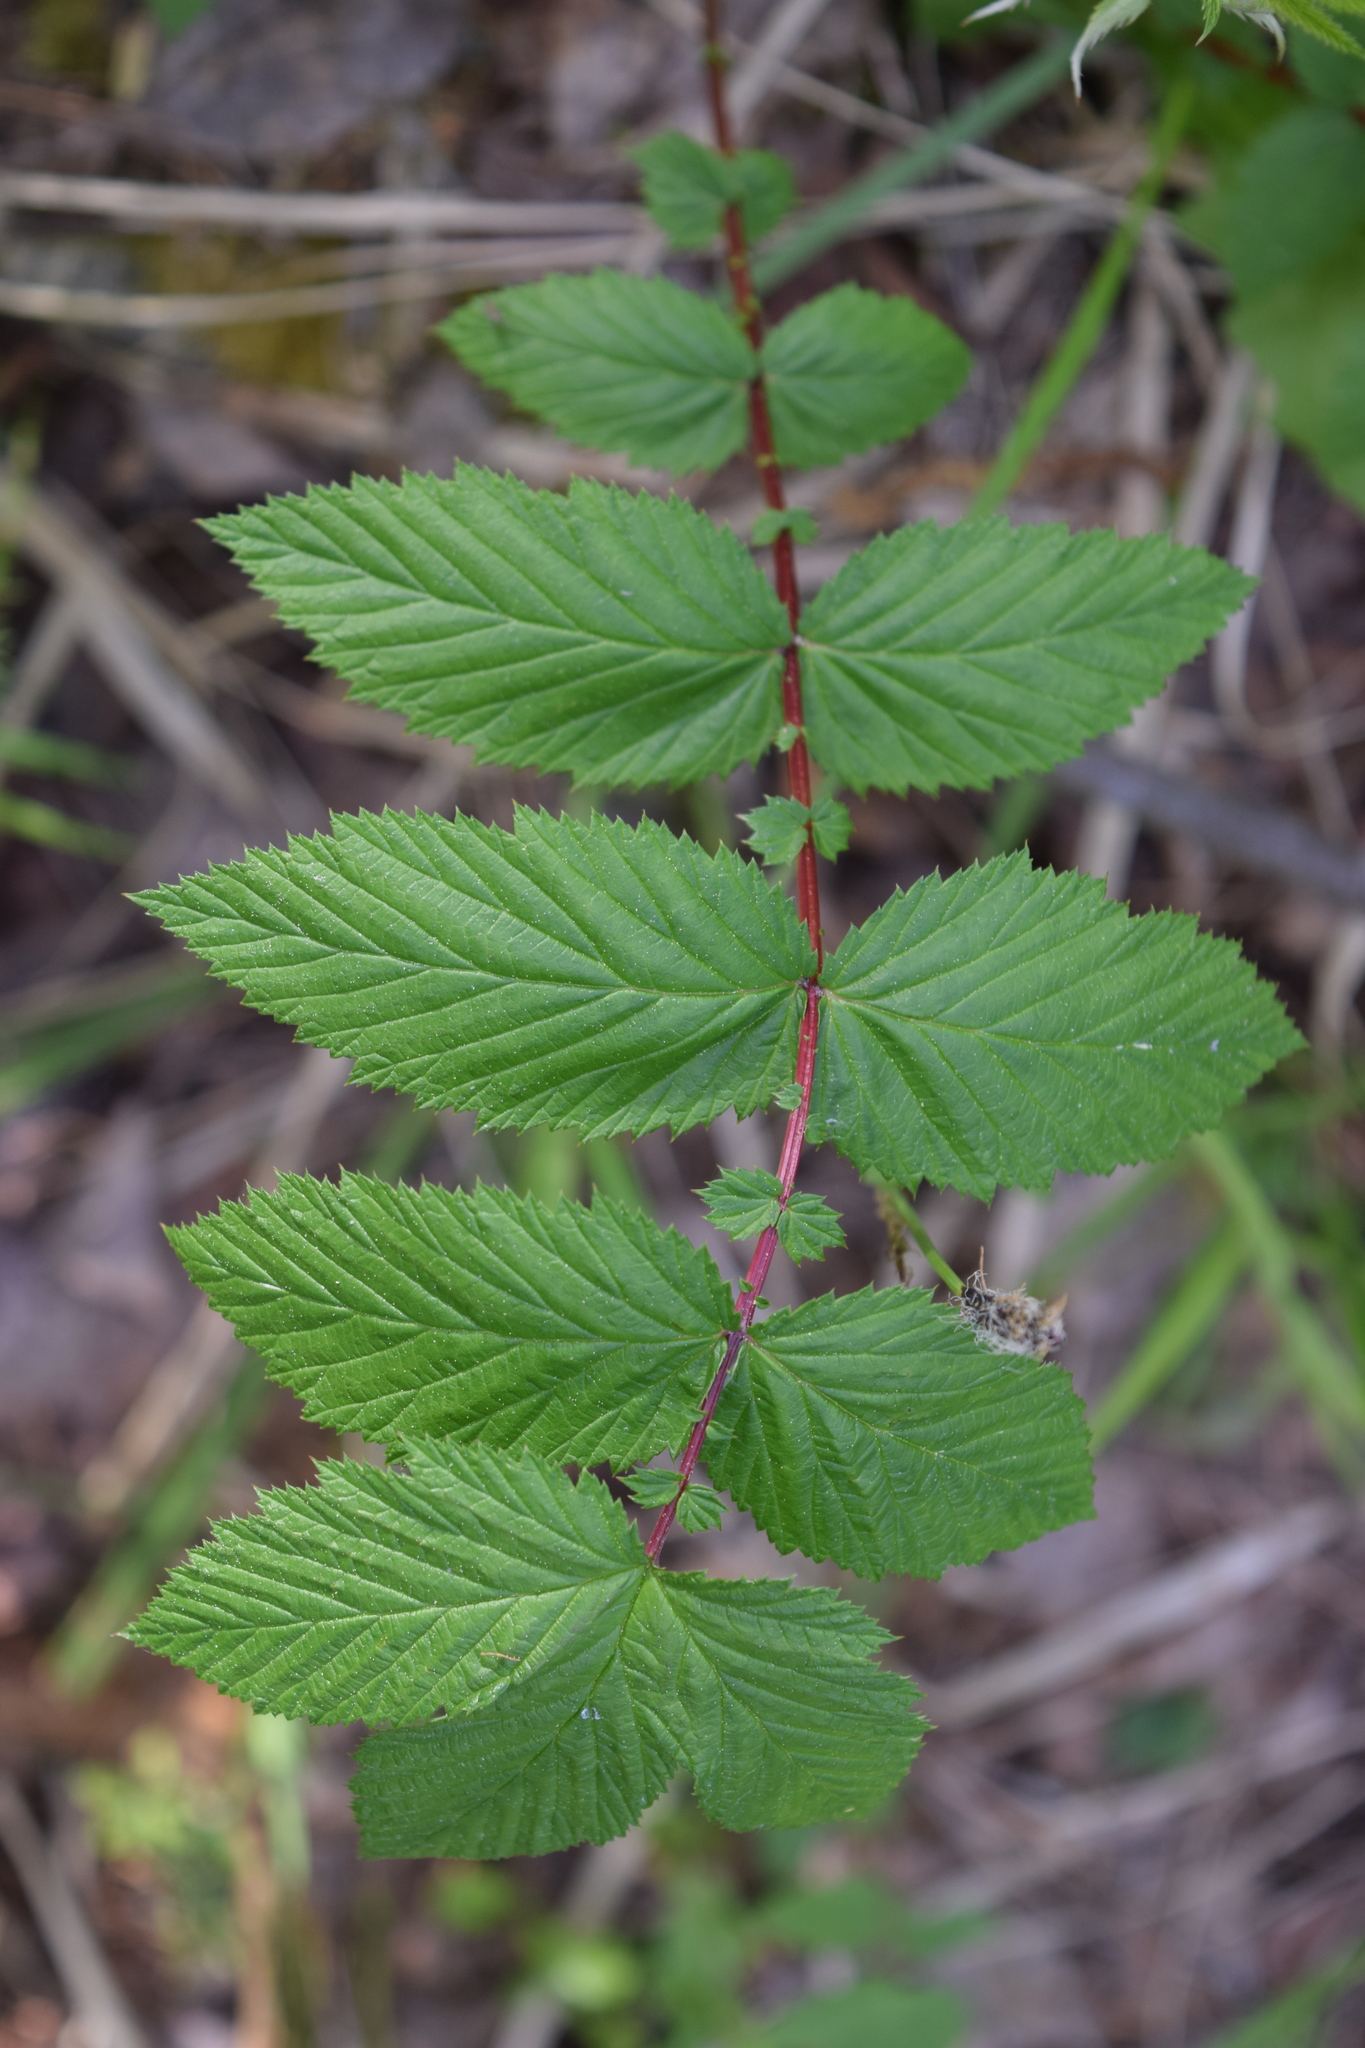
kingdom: Plantae
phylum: Tracheophyta
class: Magnoliopsida
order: Rosales
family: Rosaceae
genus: Filipendula
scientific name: Filipendula ulmaria
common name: Meadowsweet
